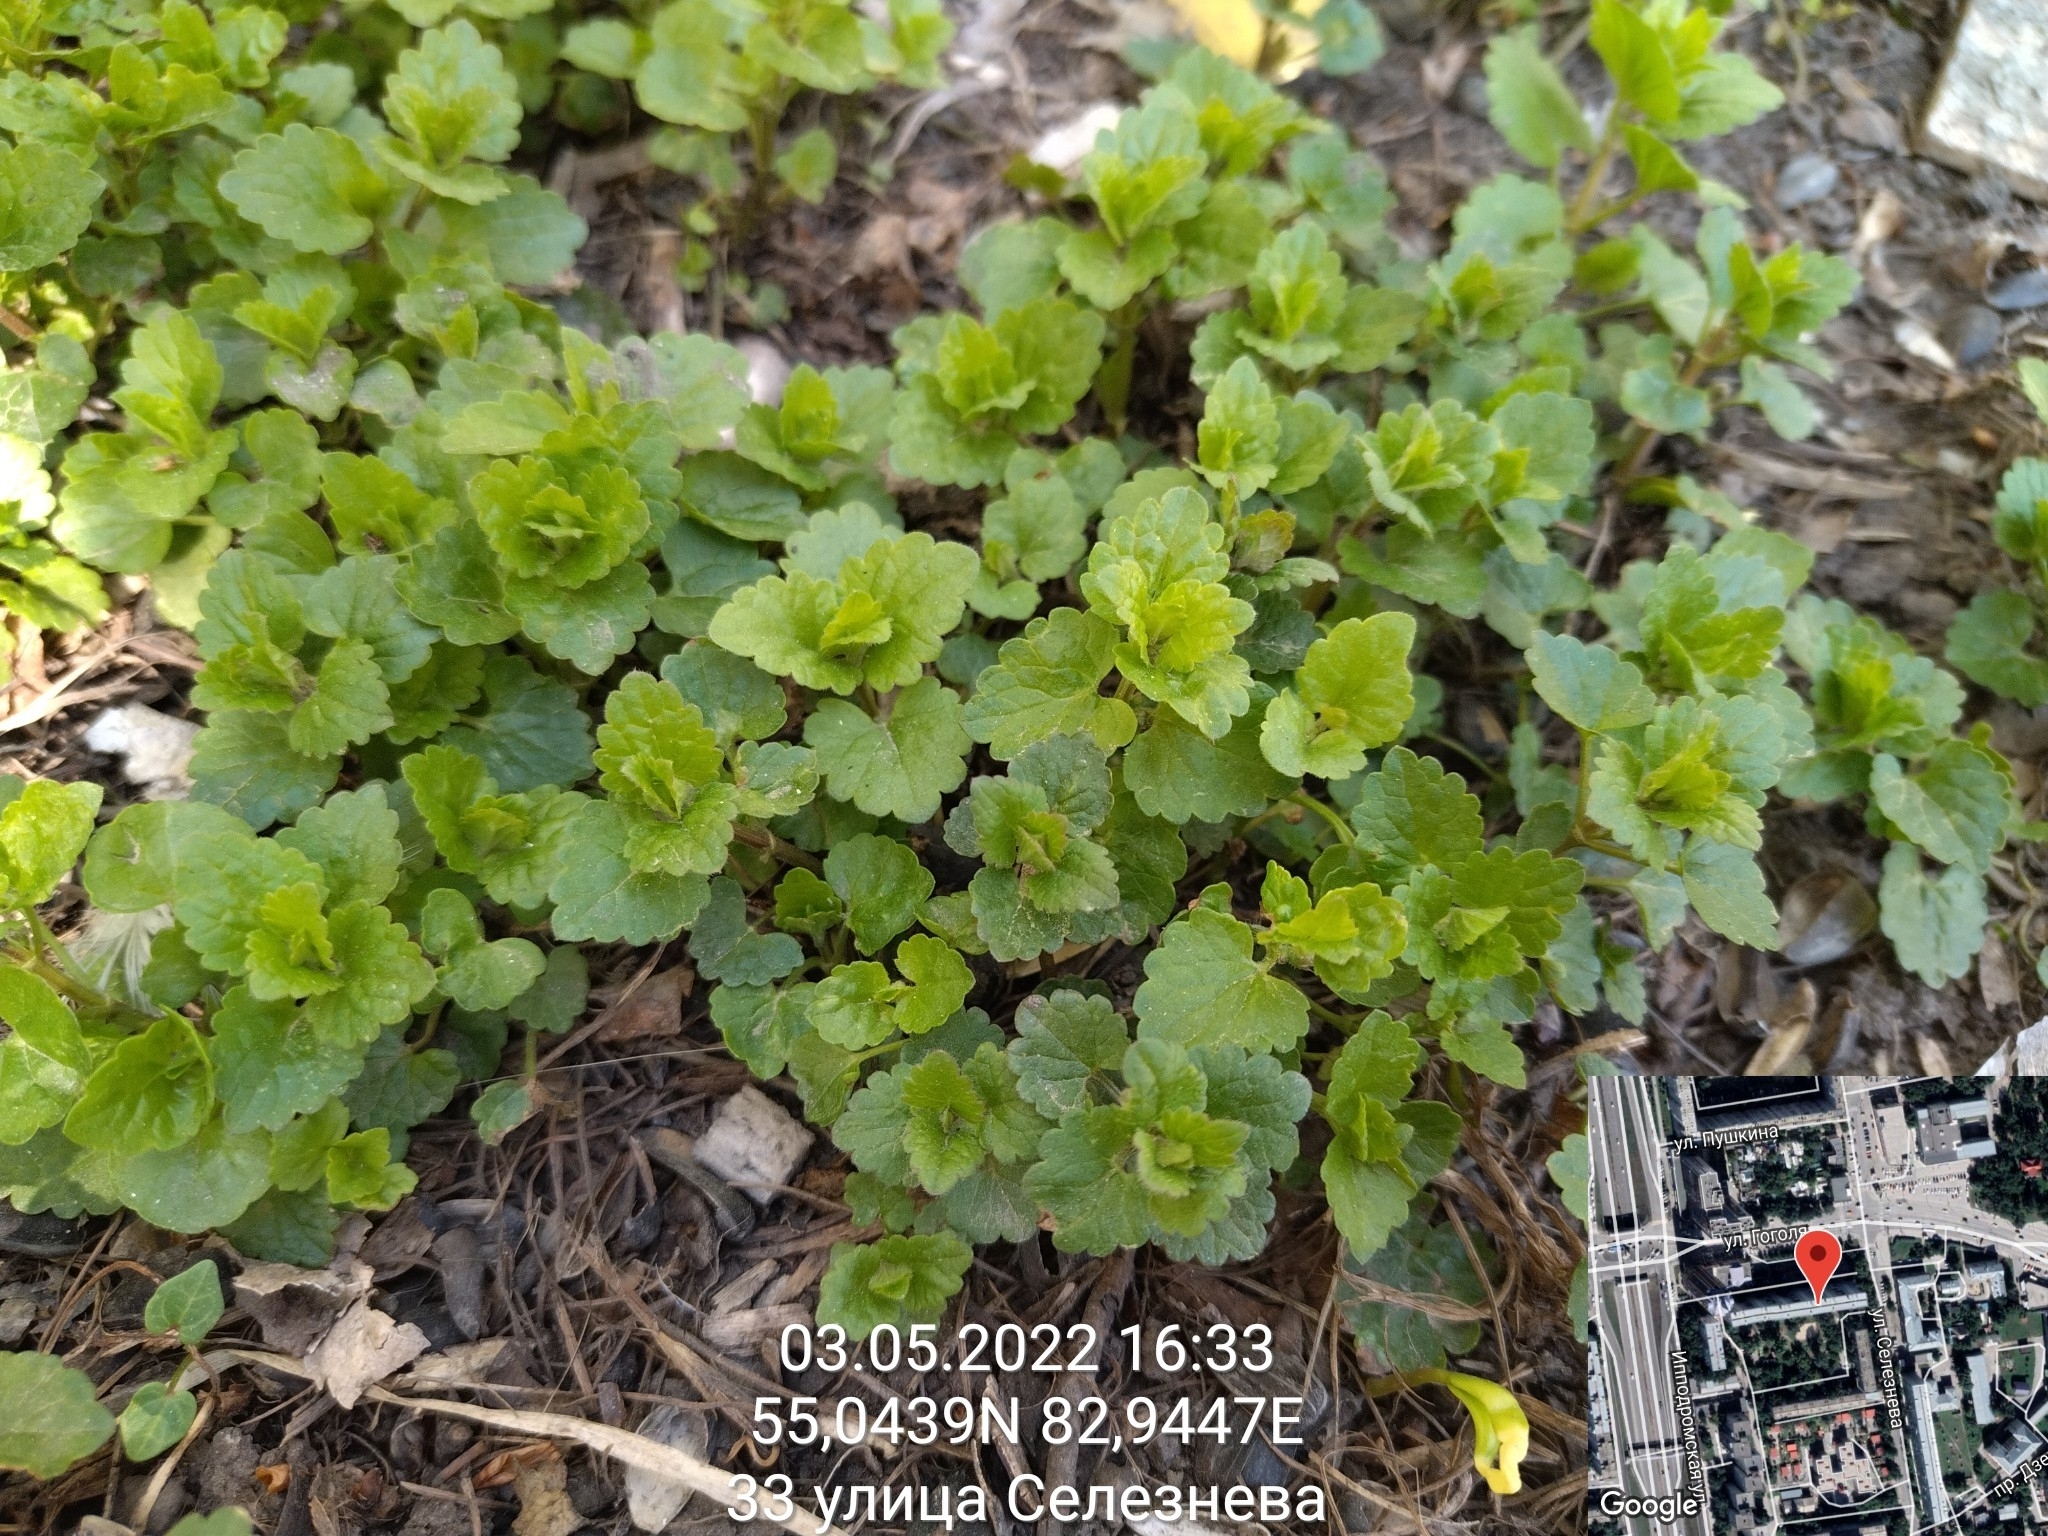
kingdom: Plantae
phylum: Tracheophyta
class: Magnoliopsida
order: Lamiales
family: Lamiaceae
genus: Glechoma
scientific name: Glechoma hederacea
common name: Ground ivy
